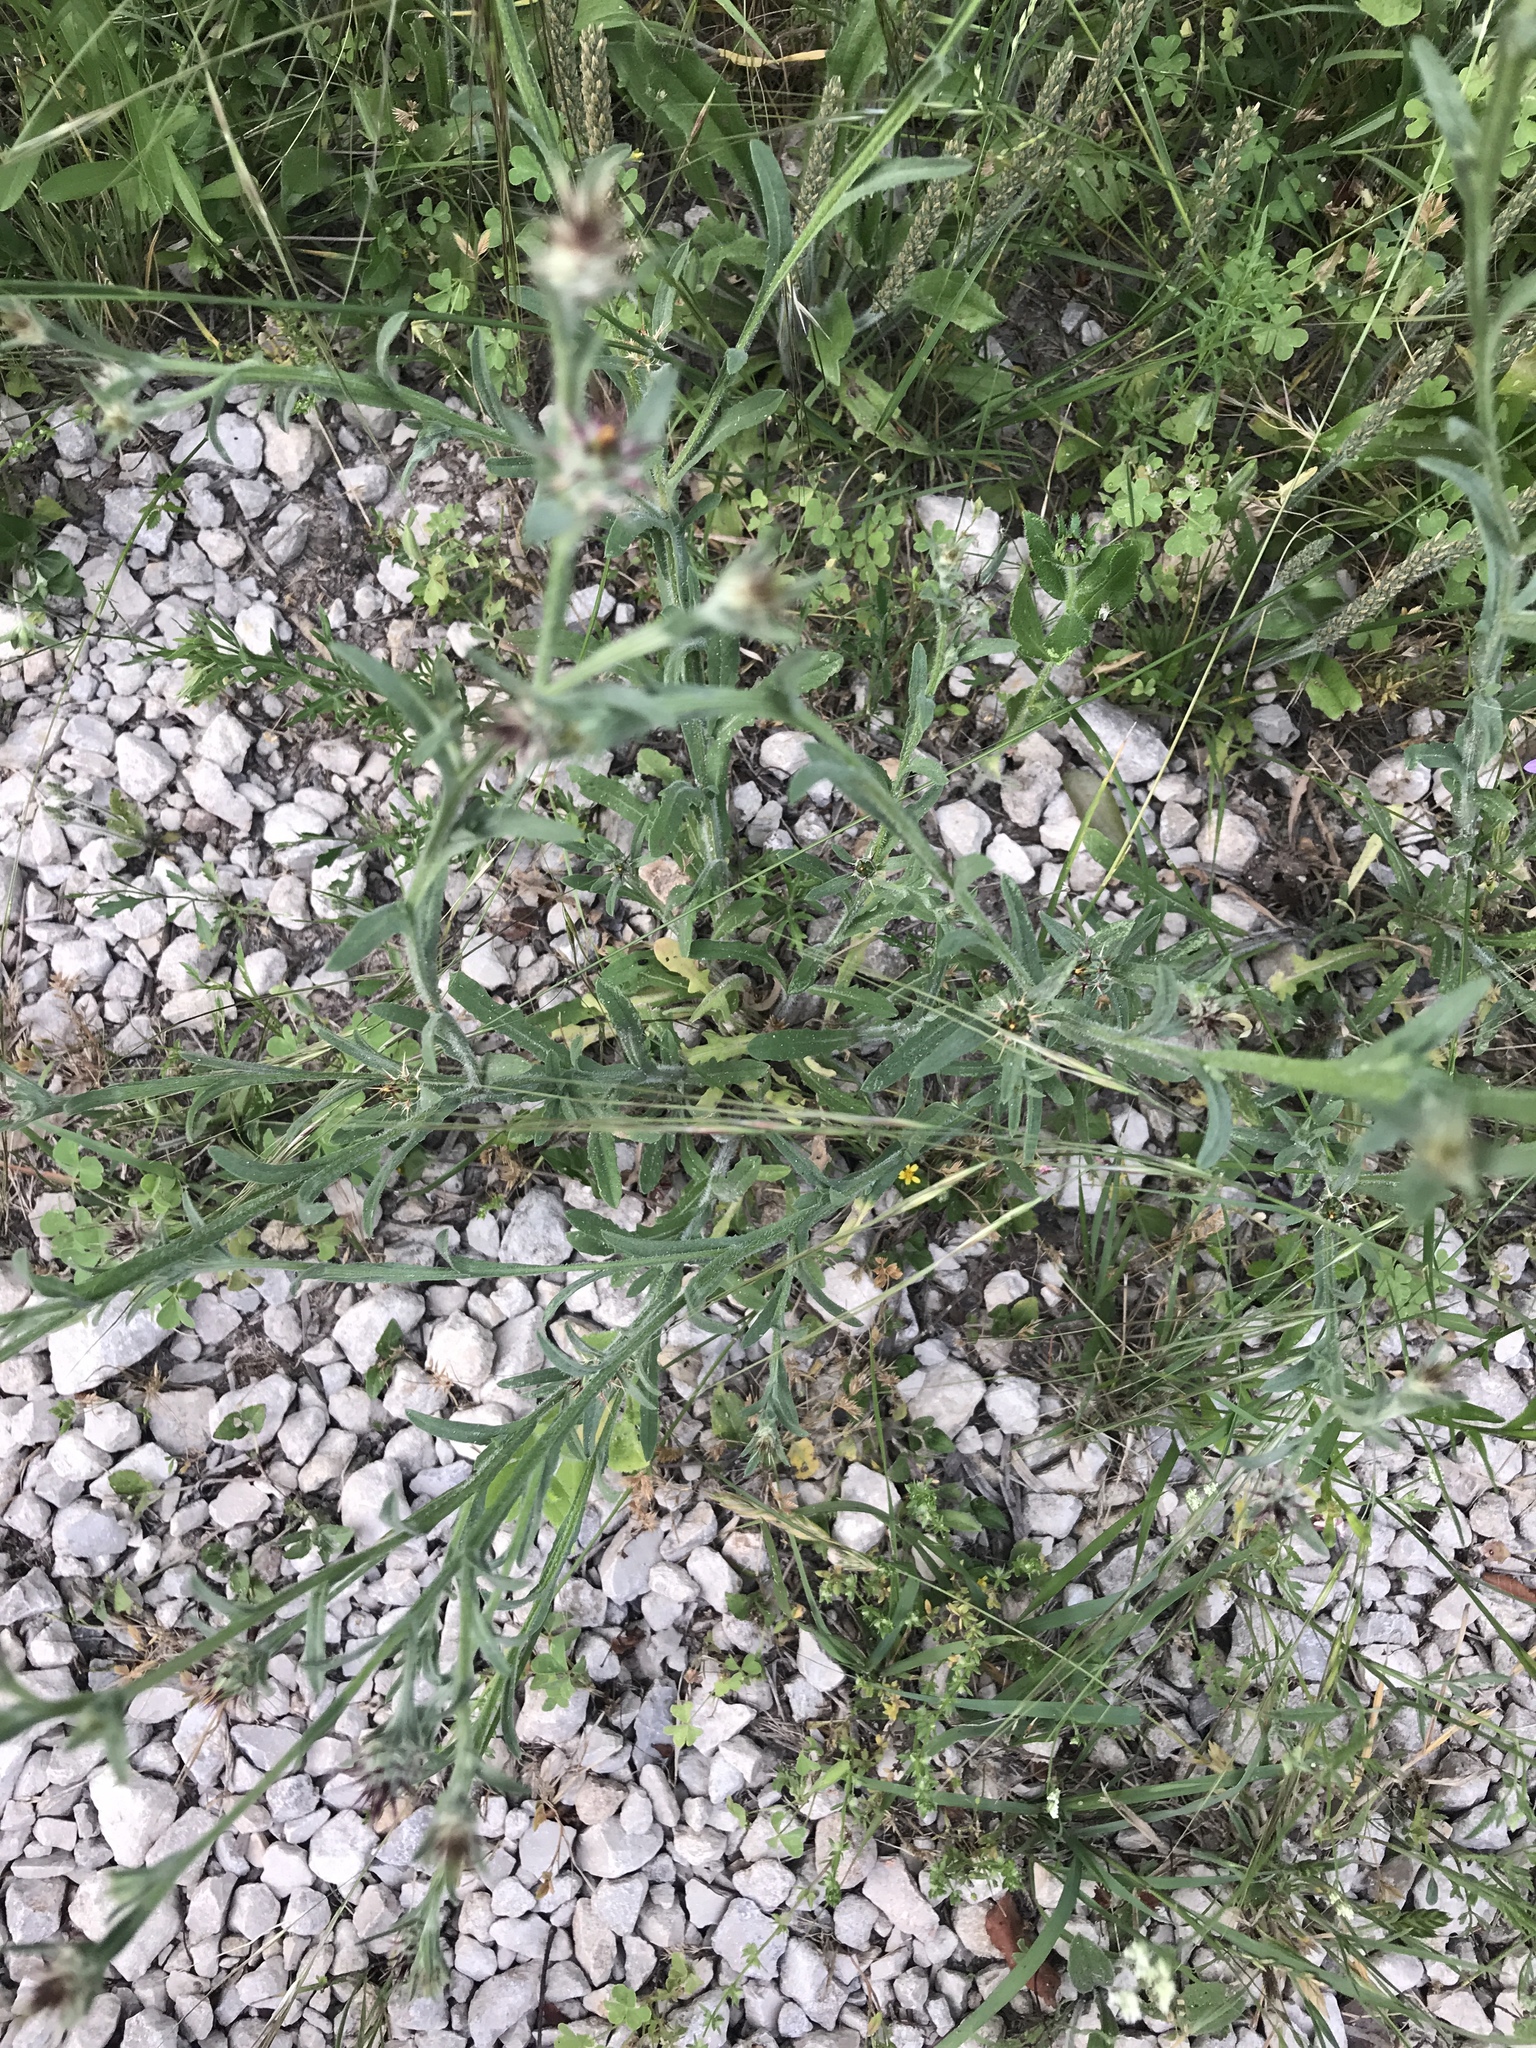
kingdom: Plantae
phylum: Tracheophyta
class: Magnoliopsida
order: Asterales
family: Asteraceae
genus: Centaurea
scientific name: Centaurea melitensis
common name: Maltese star-thistle
